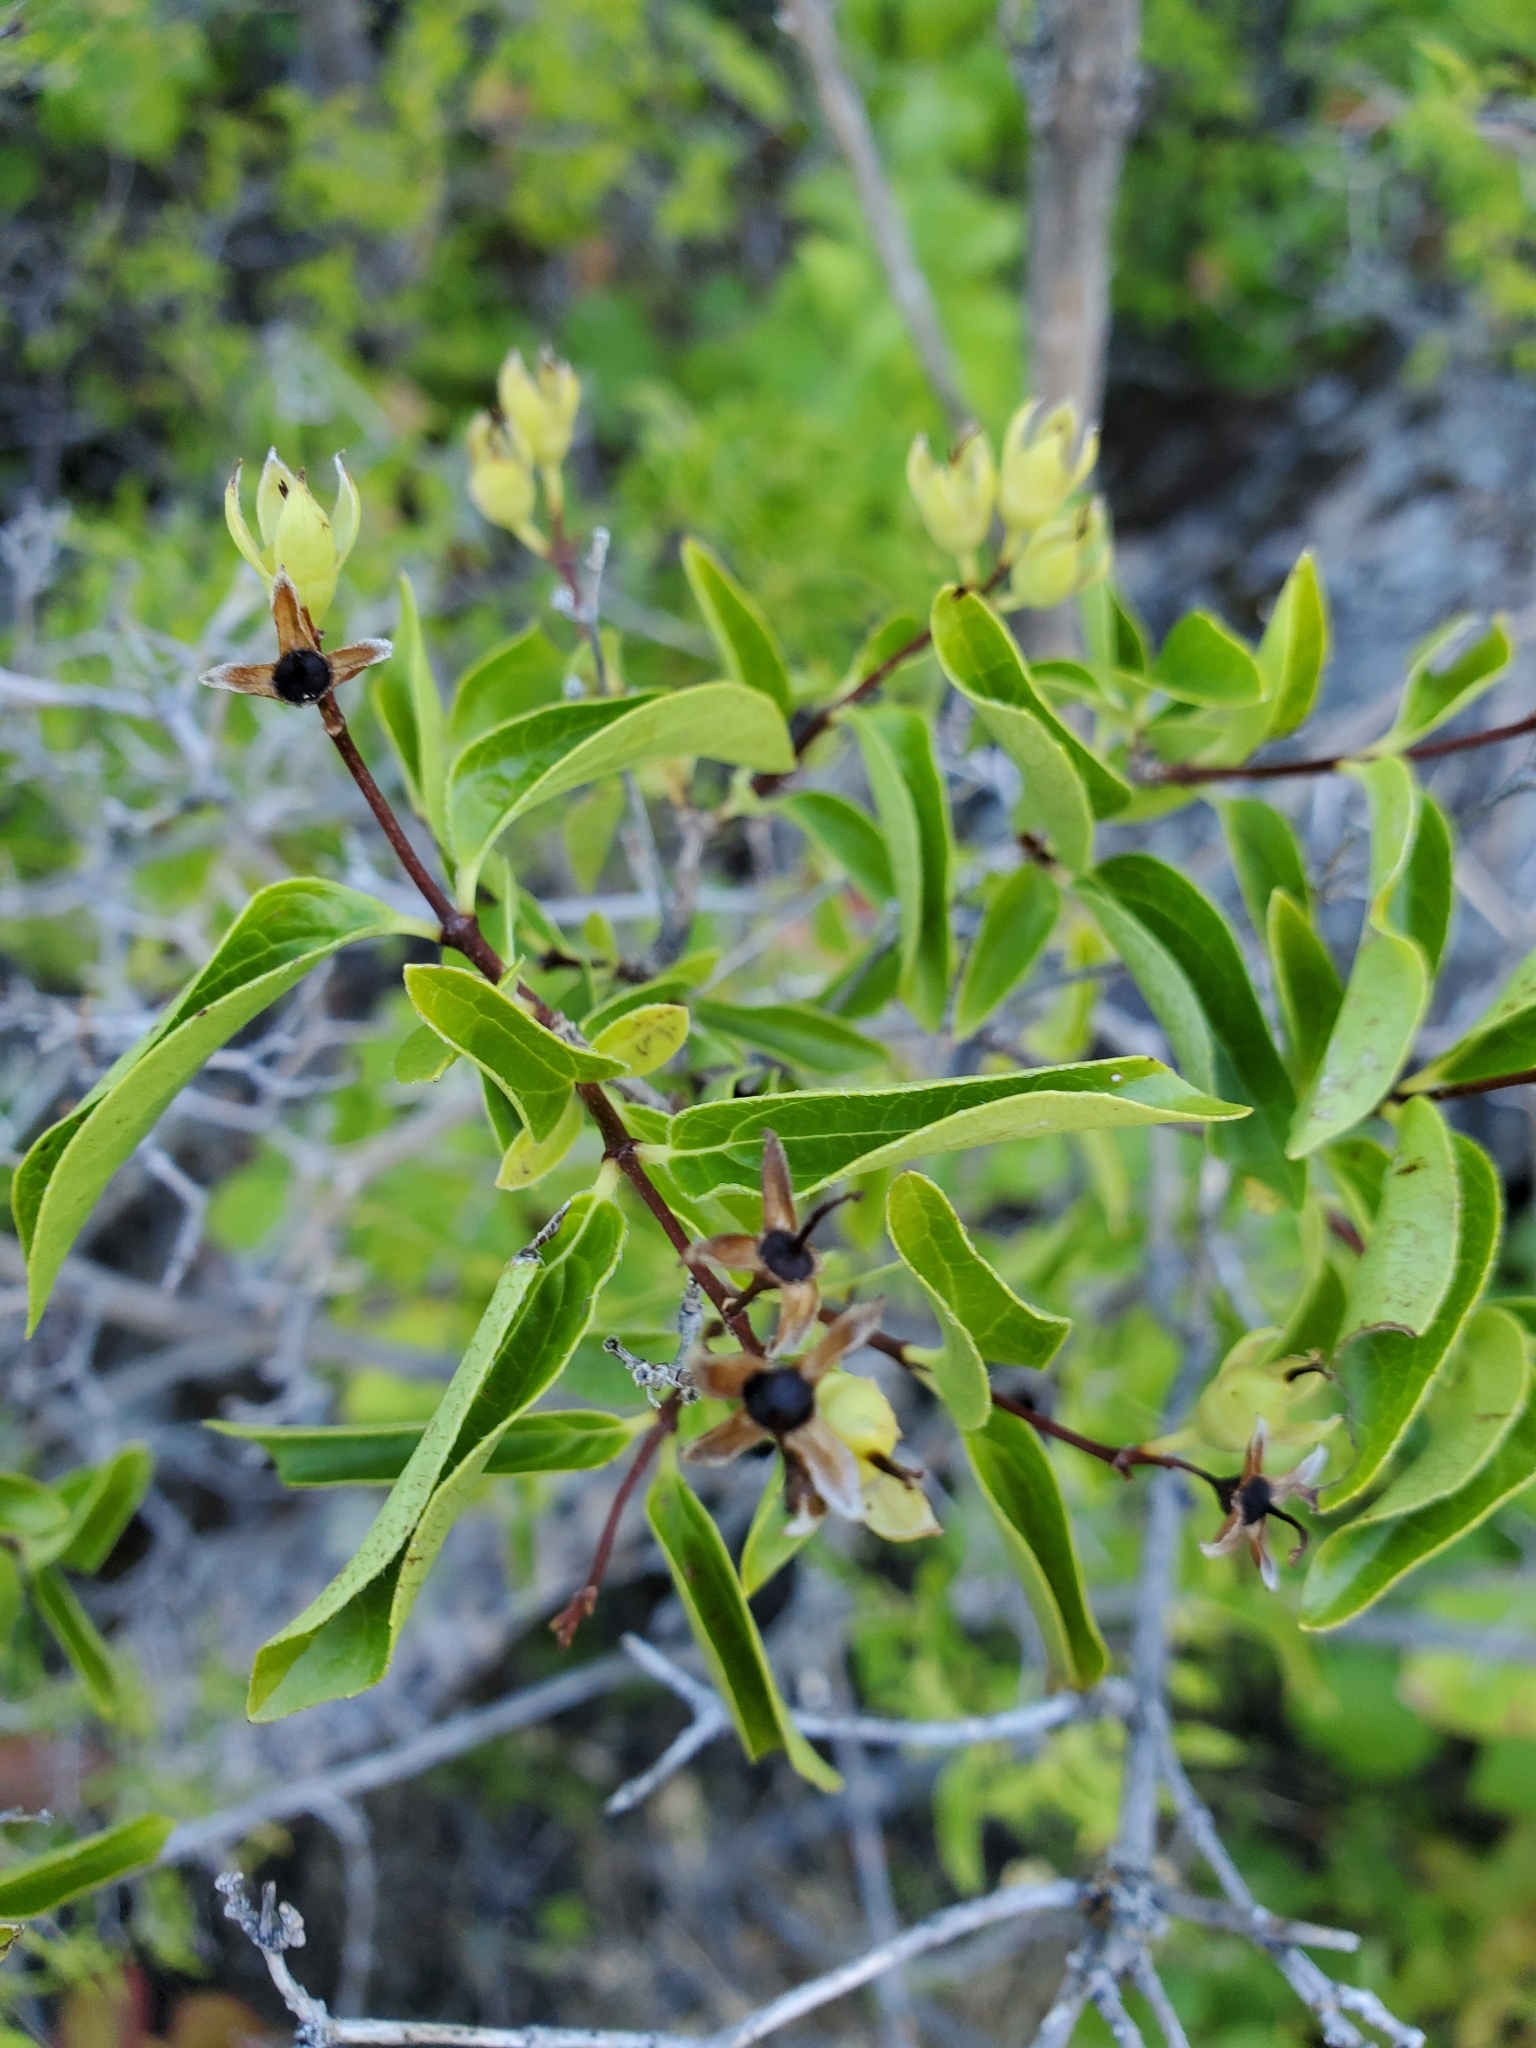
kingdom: Plantae
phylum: Tracheophyta
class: Magnoliopsida
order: Cornales
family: Hydrangeaceae
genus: Philadelphus
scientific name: Philadelphus lewisii
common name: Lewis's mock orange
